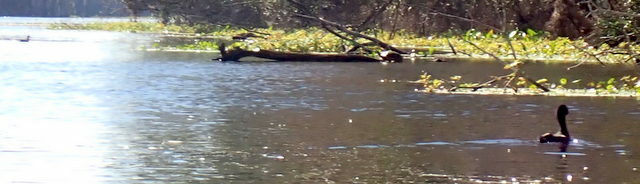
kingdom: Animalia
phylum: Chordata
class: Aves
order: Gruiformes
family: Rallidae
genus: Fulica
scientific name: Fulica americana
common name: American coot
